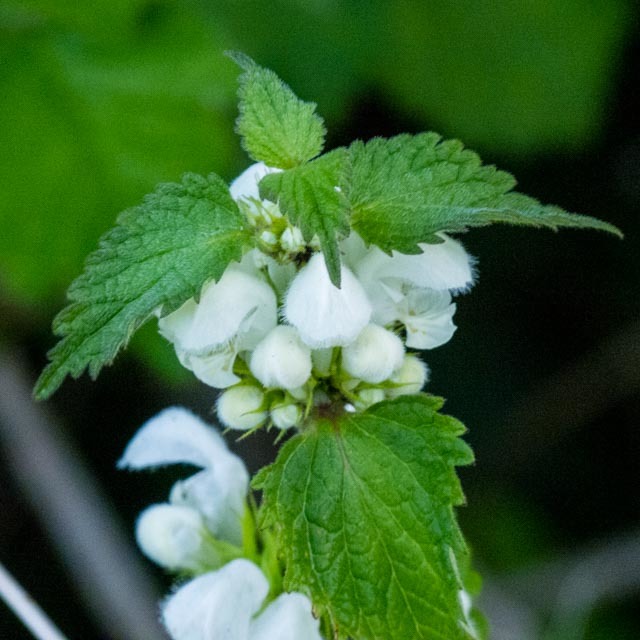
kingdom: Plantae
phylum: Tracheophyta
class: Magnoliopsida
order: Lamiales
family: Lamiaceae
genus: Lamium
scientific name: Lamium album
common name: White dead-nettle
